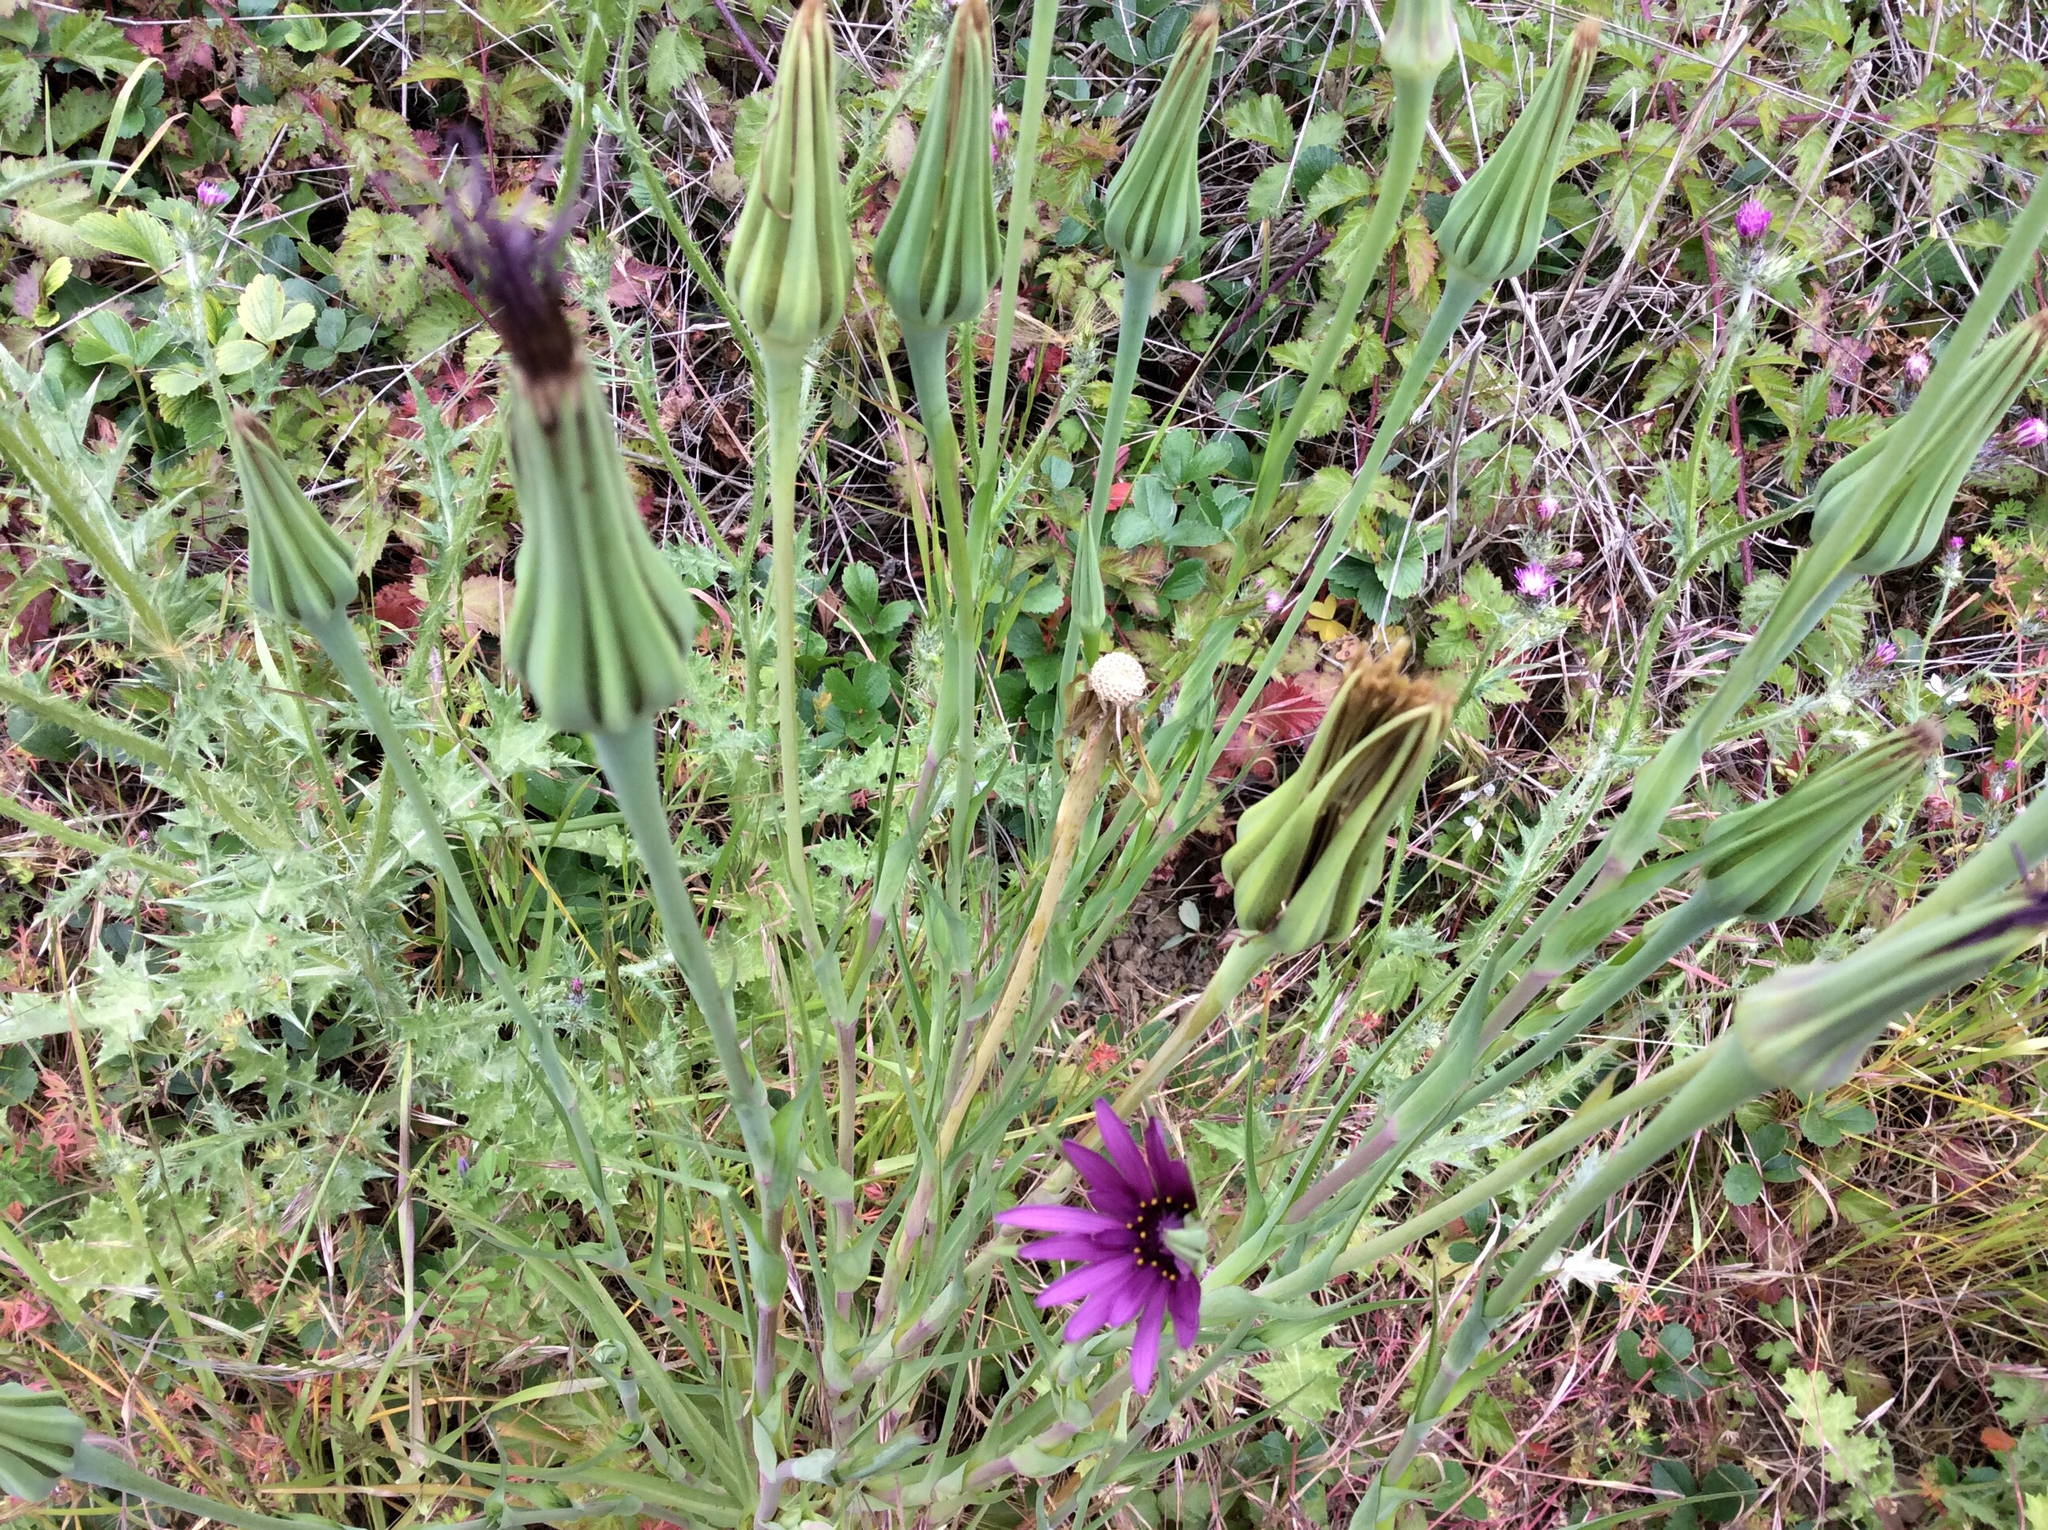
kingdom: Plantae
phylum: Tracheophyta
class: Magnoliopsida
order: Asterales
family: Asteraceae
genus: Tragopogon
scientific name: Tragopogon porrifolius
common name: Salsify
